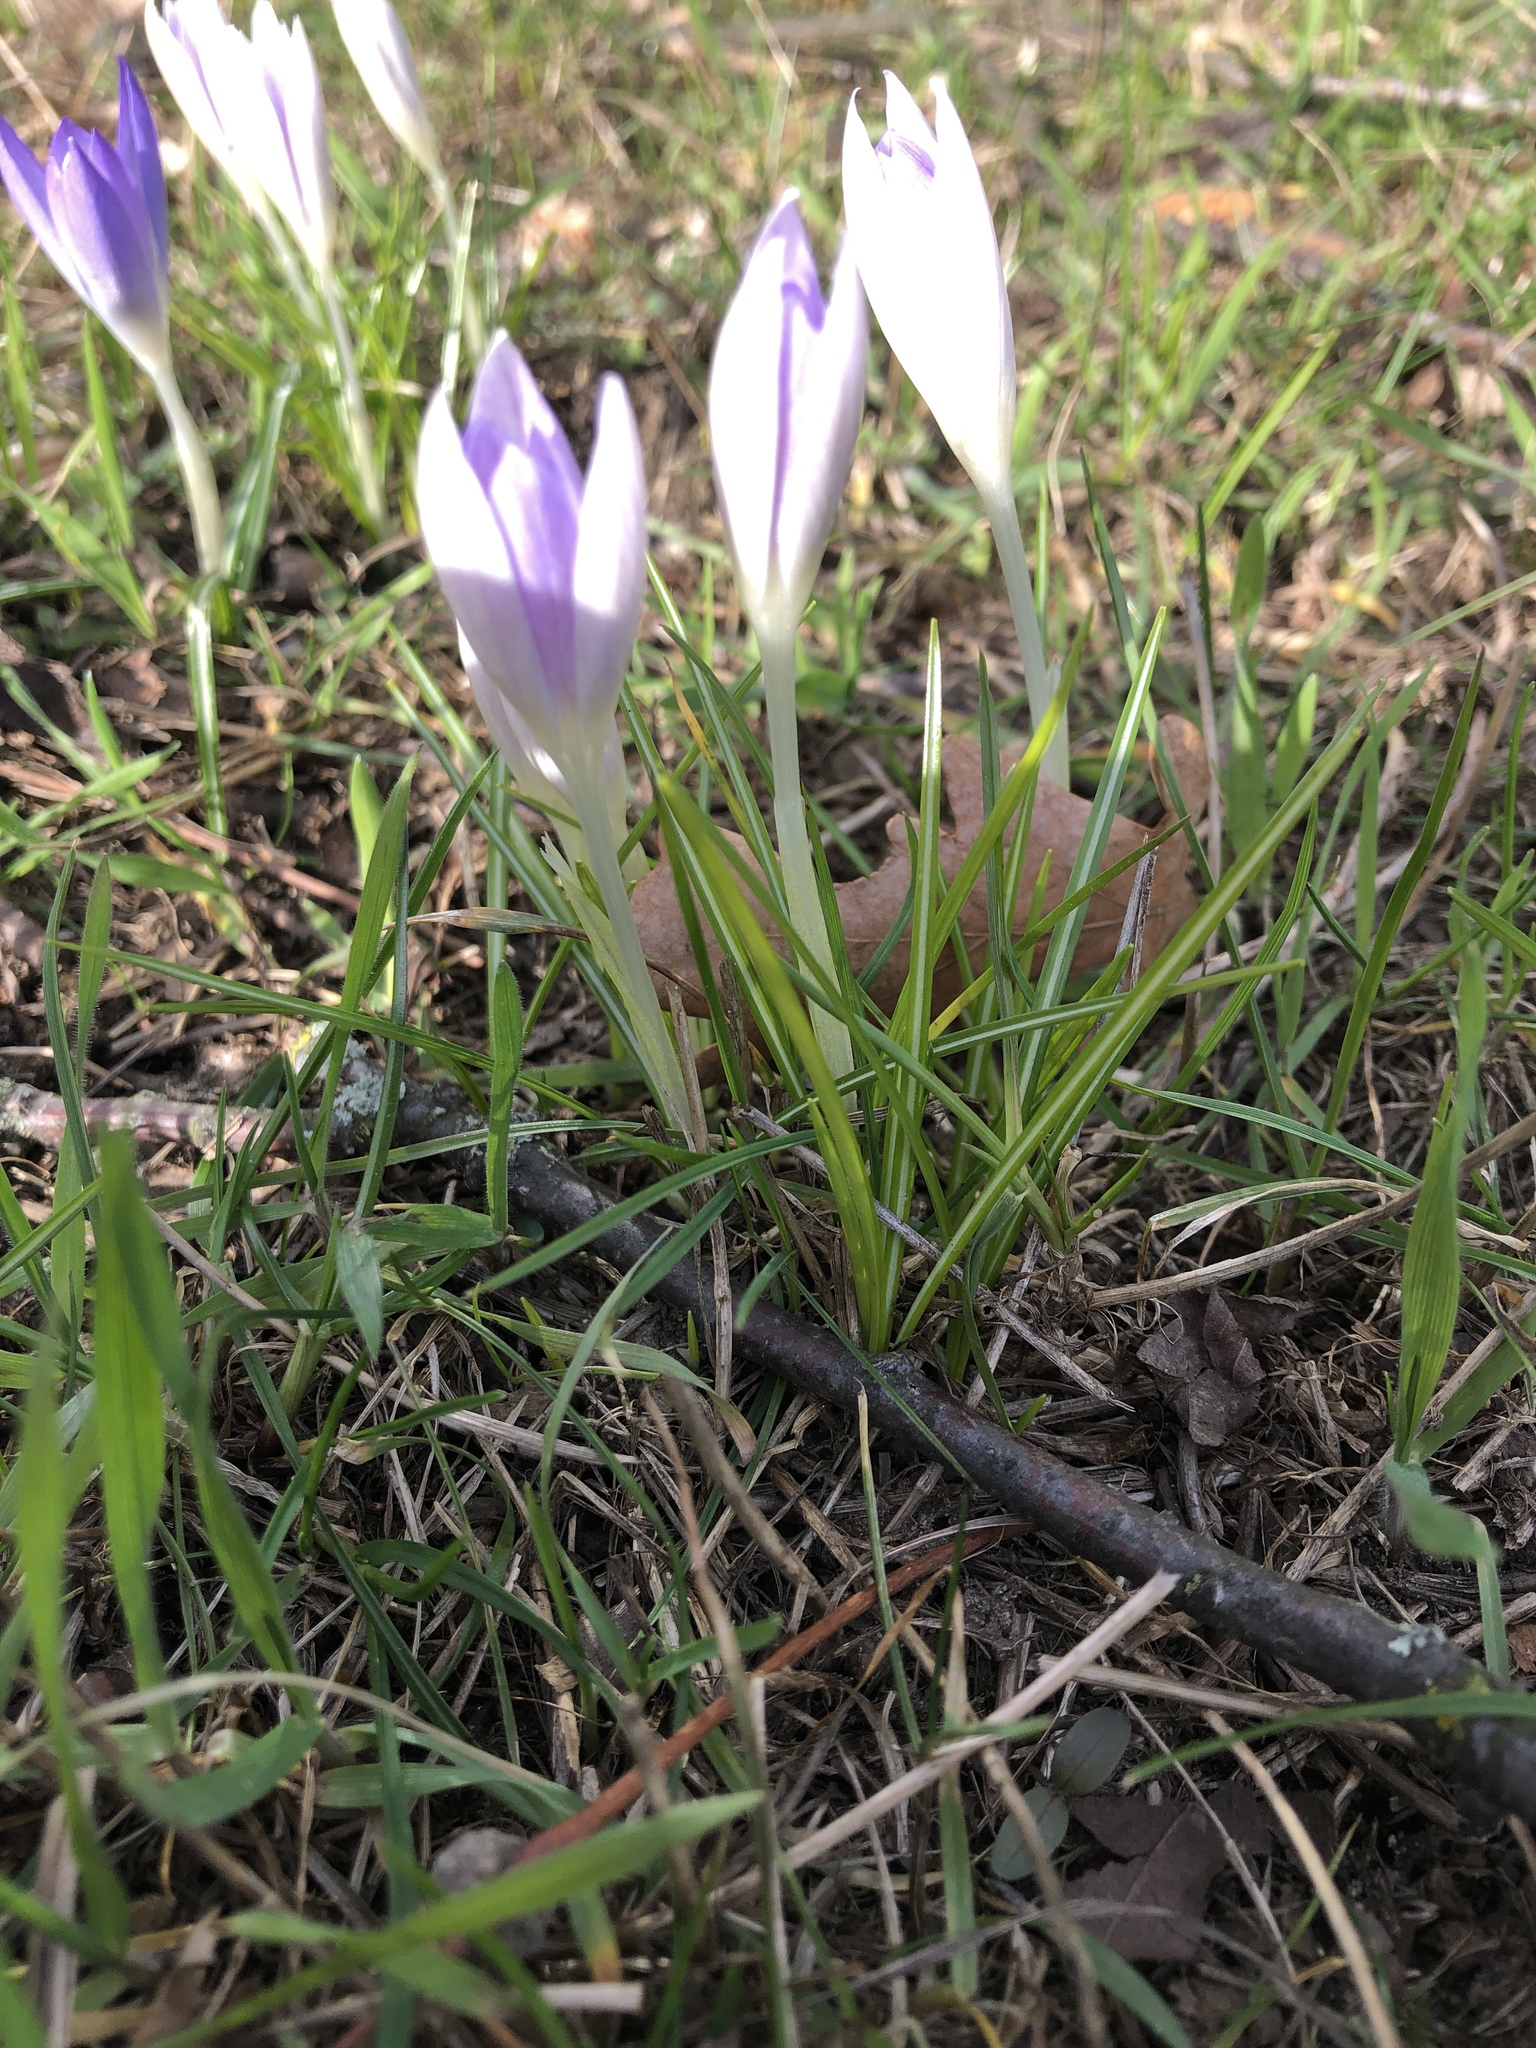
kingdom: Plantae
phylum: Tracheophyta
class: Liliopsida
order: Asparagales
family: Iridaceae
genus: Crocus
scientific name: Crocus tommasinianus
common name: Early crocus
